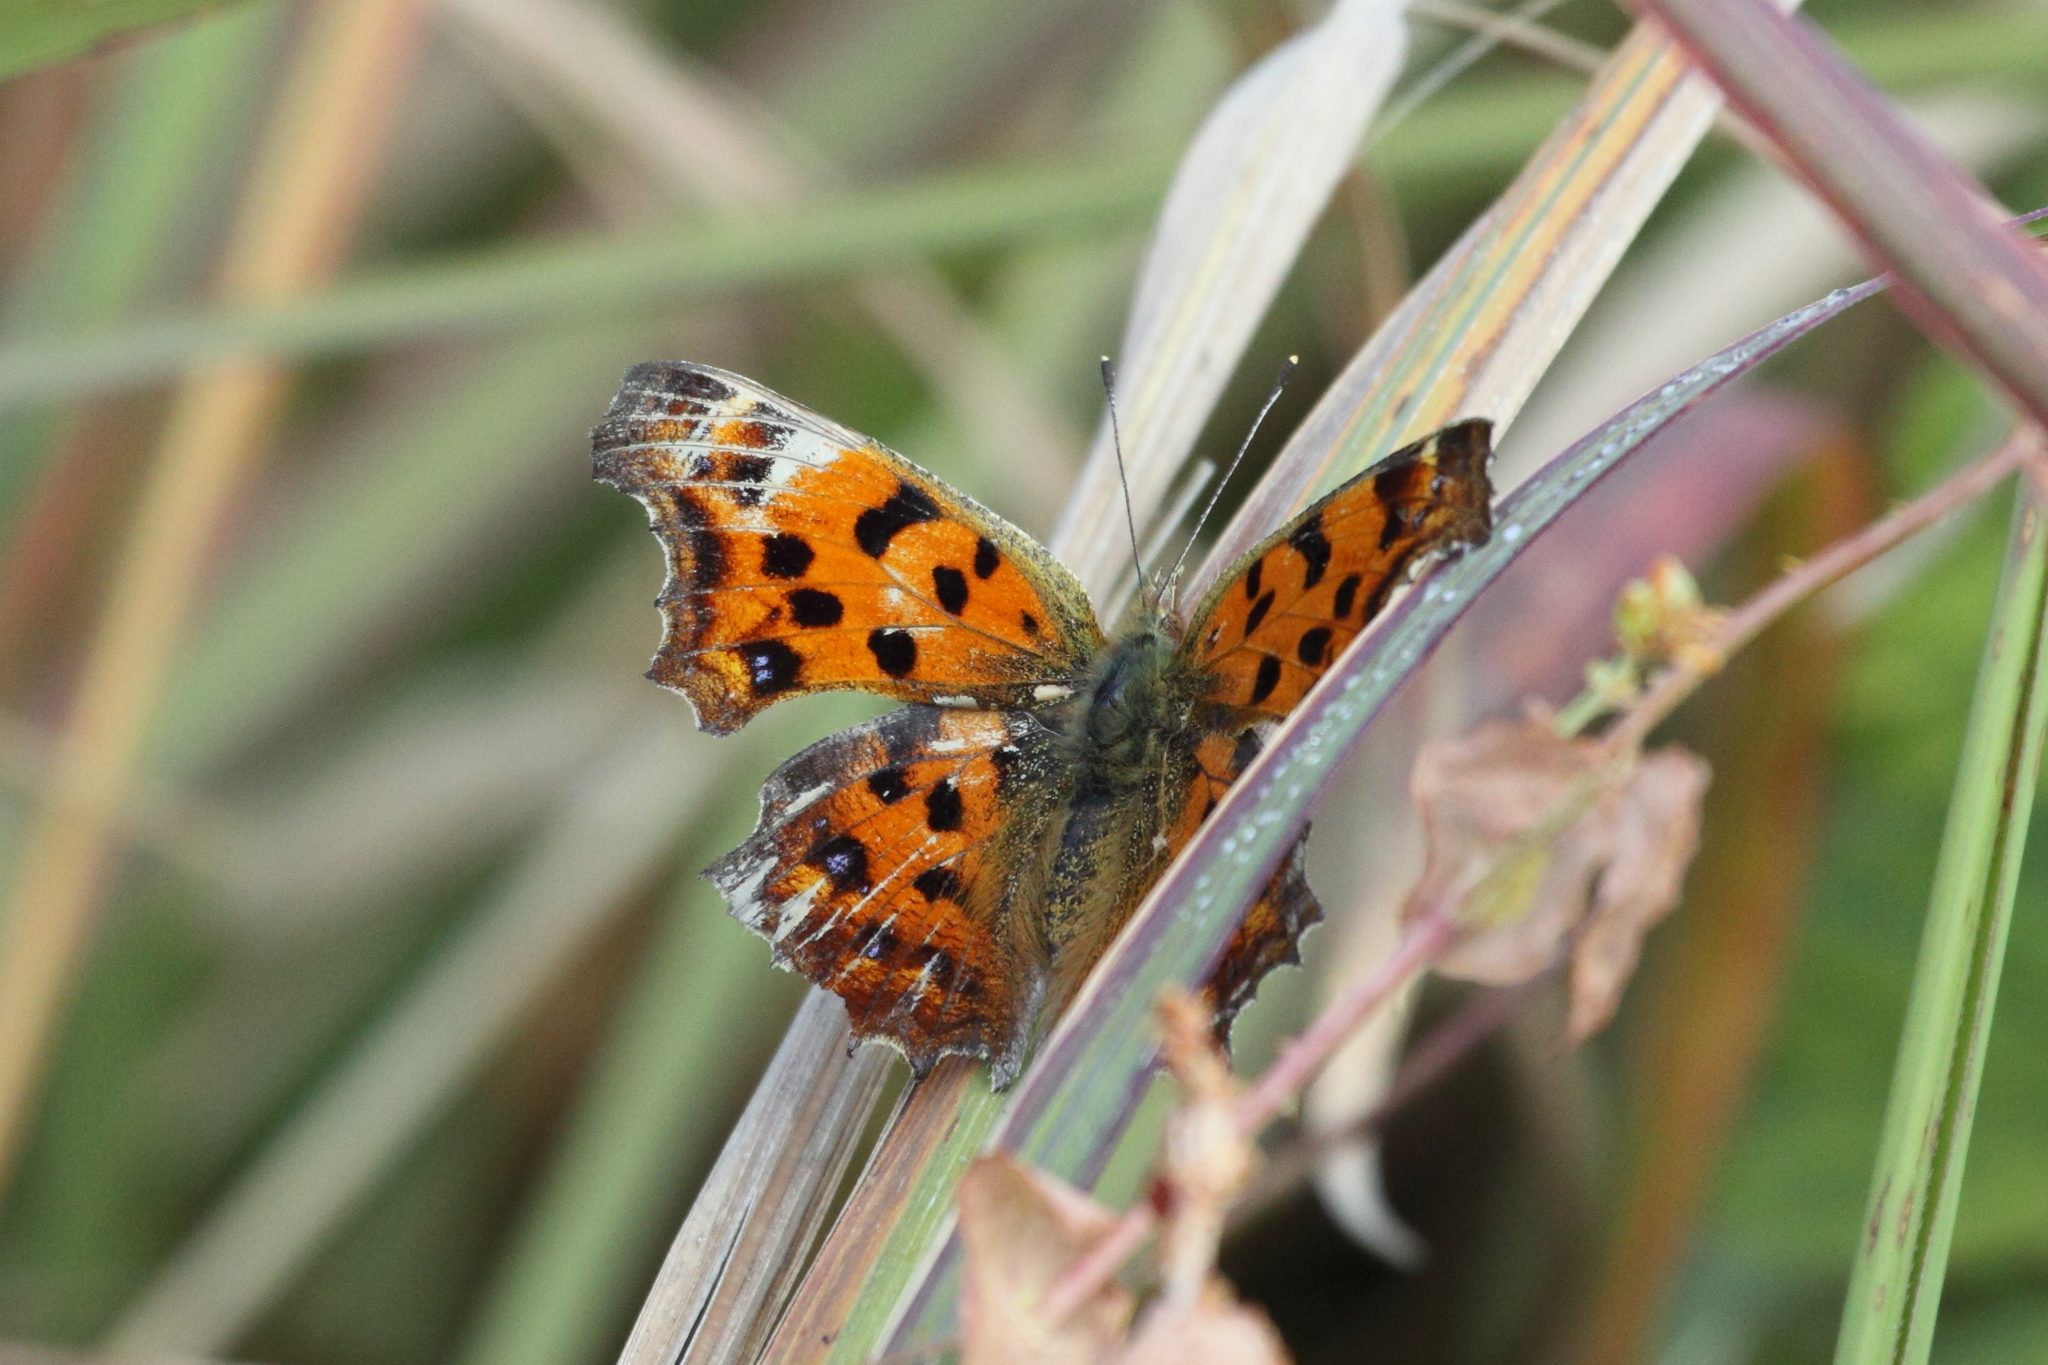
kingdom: Animalia
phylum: Arthropoda
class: Insecta
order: Lepidoptera
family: Nymphalidae
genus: Polygonia
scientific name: Polygonia c-aureum
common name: Asian comma
